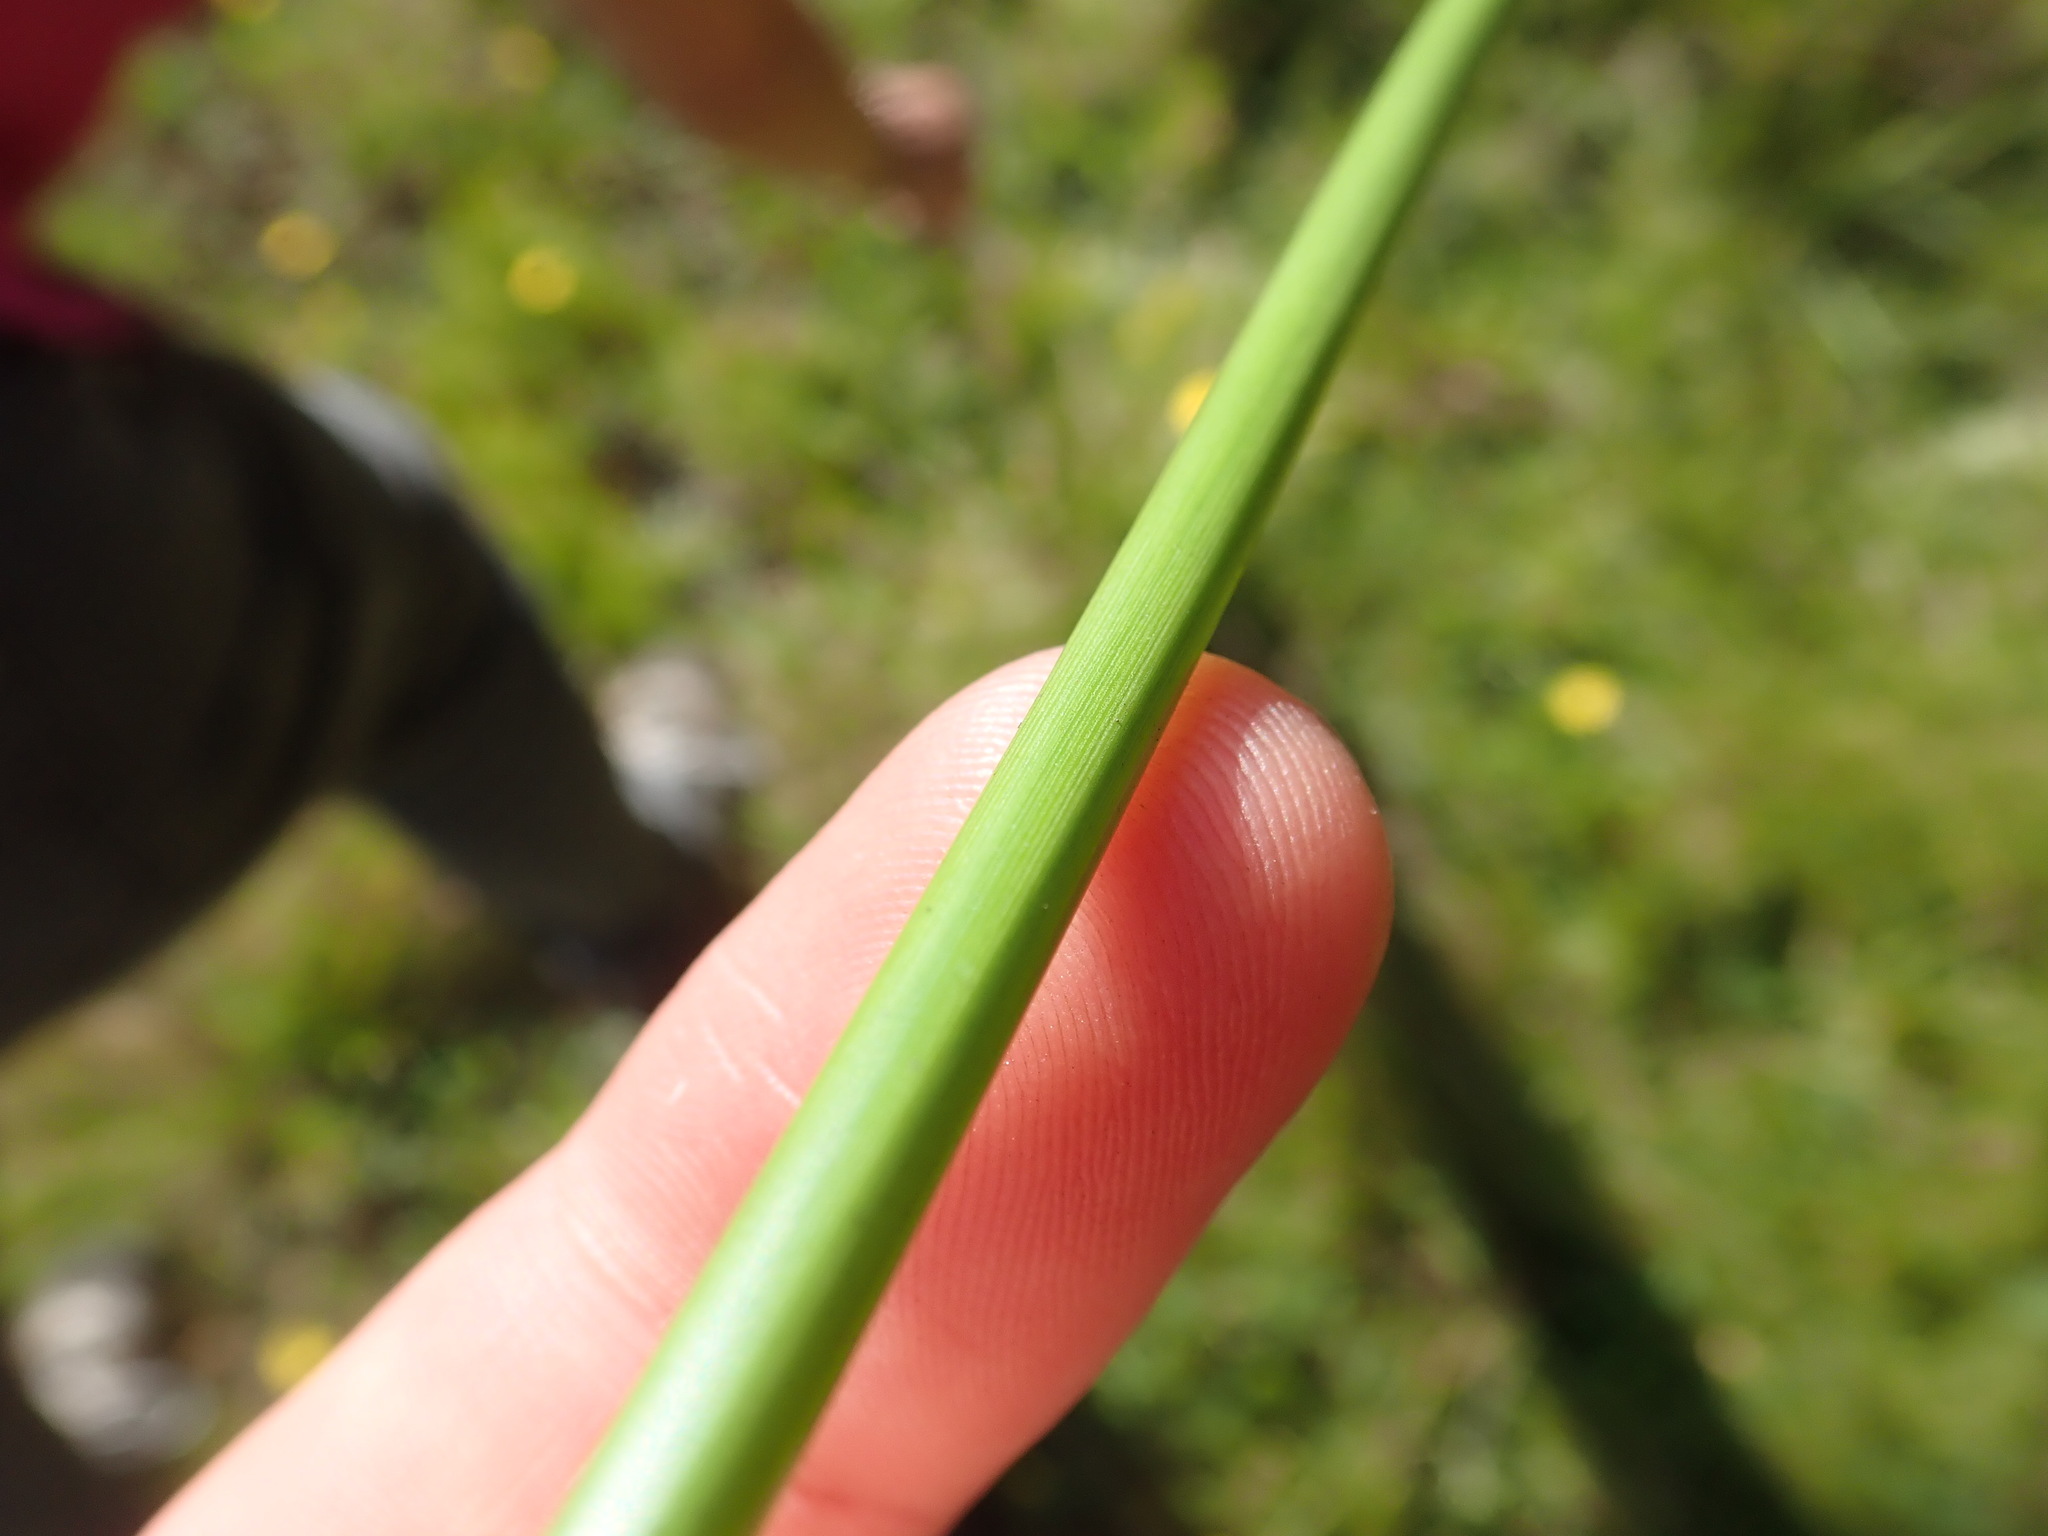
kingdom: Plantae
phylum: Tracheophyta
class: Liliopsida
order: Poales
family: Juncaceae
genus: Juncus
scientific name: Juncus effusus
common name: Soft rush
